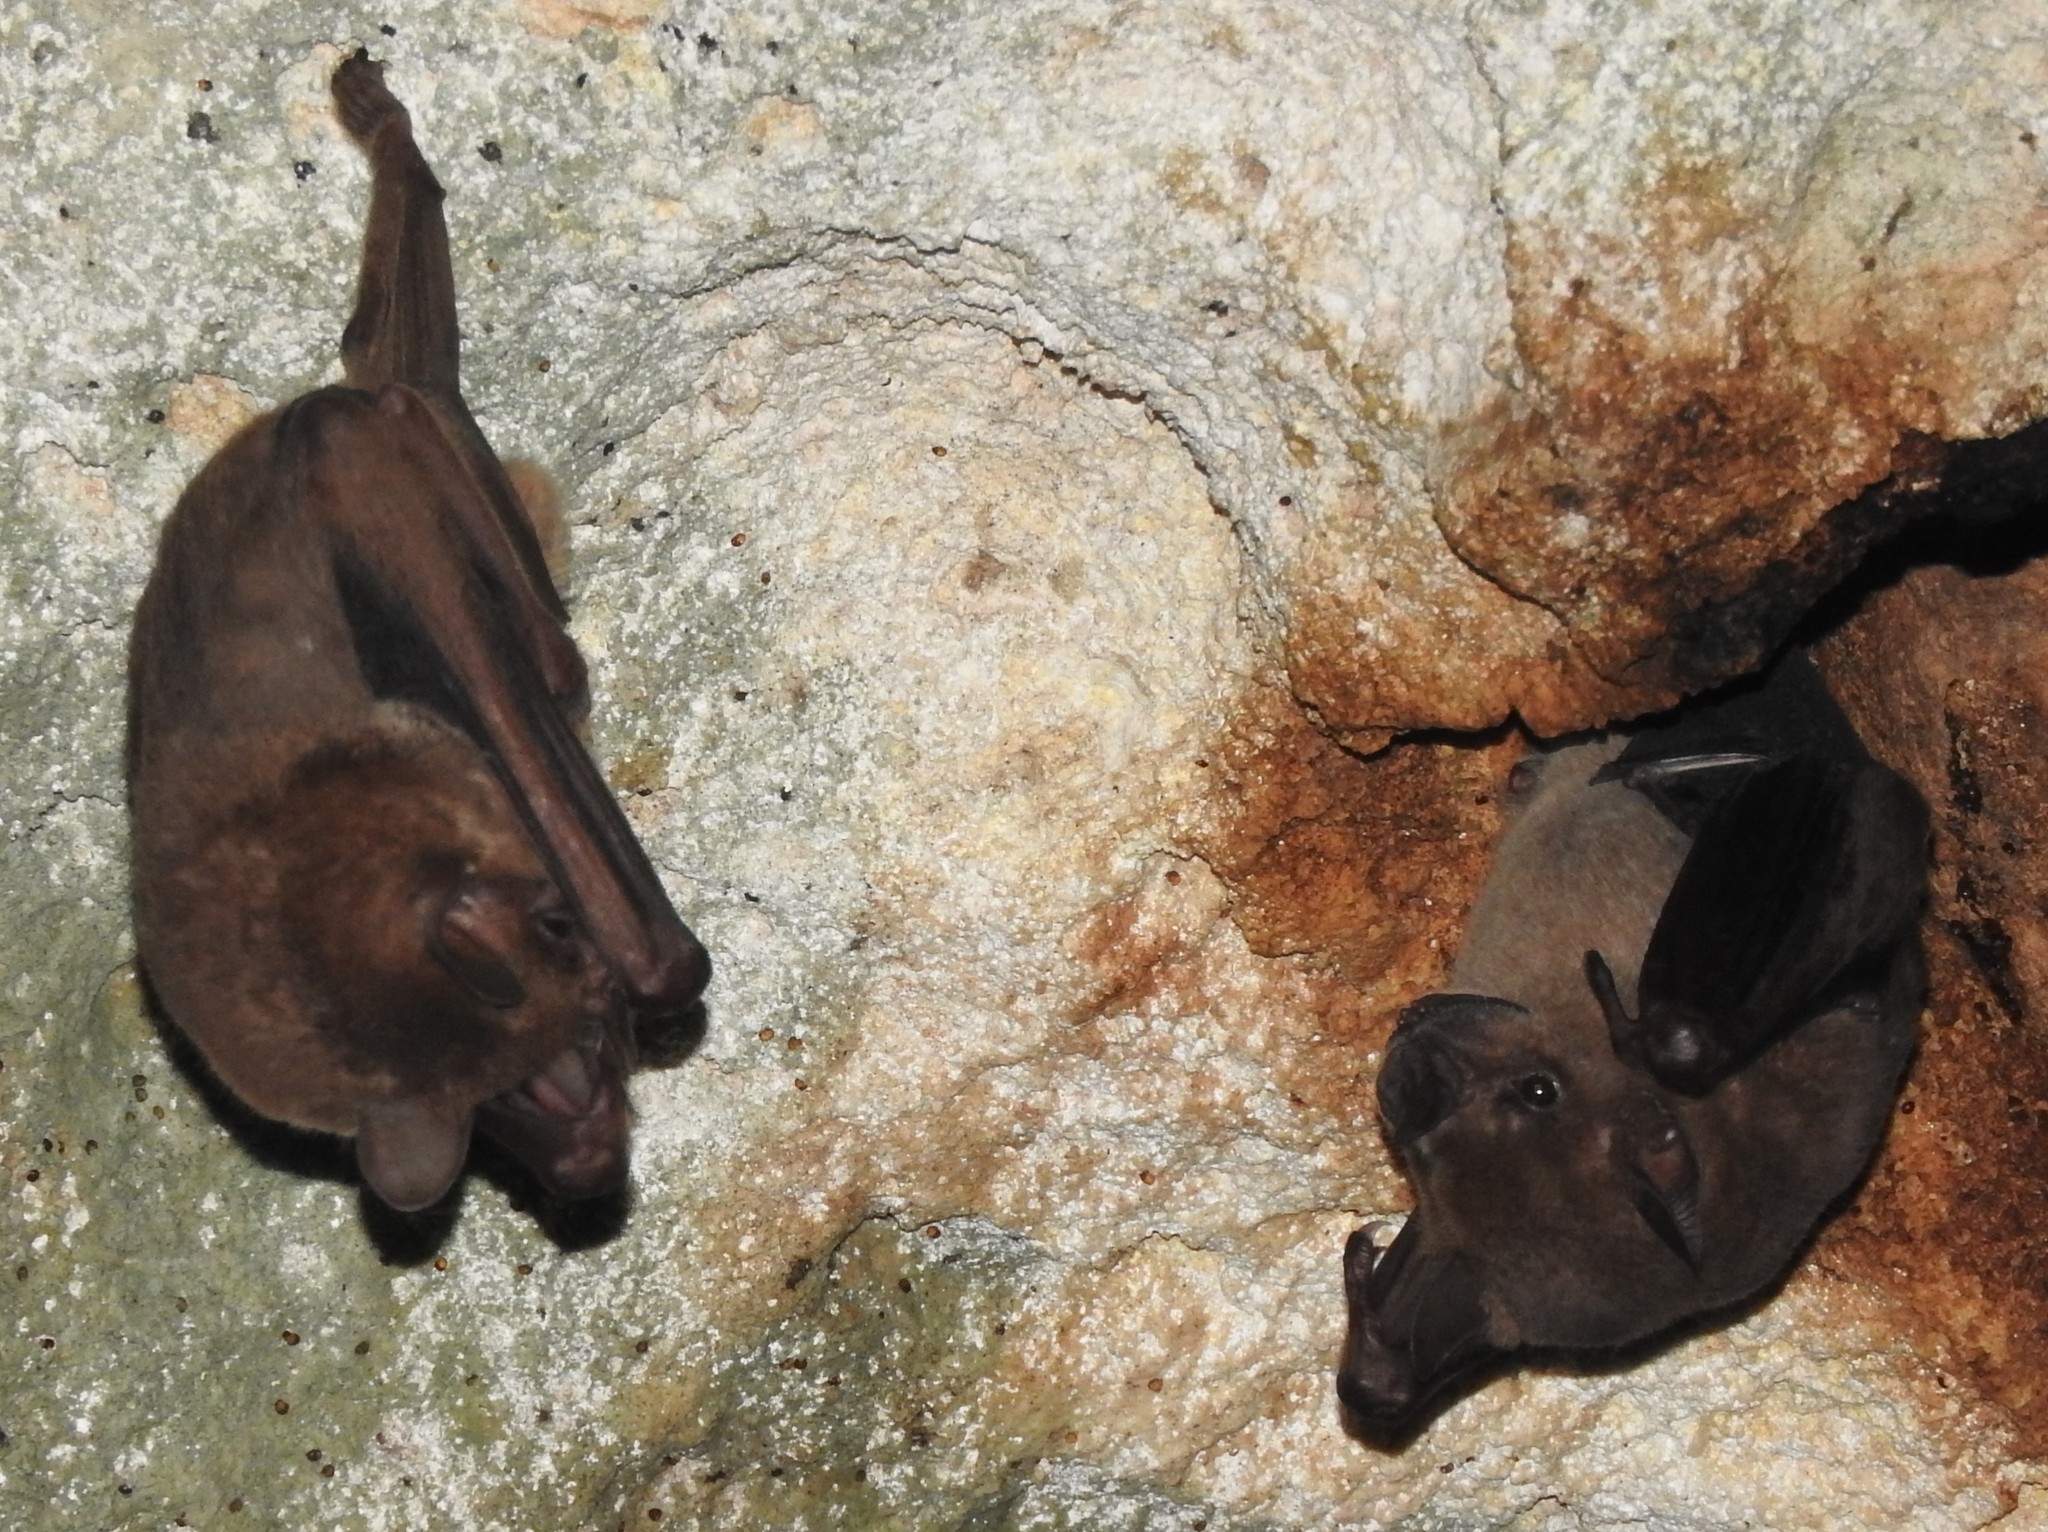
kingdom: Animalia
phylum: Chordata
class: Mammalia
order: Chiroptera
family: Phyllostomidae
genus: Artibeus
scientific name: Artibeus jamaicensis
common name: Jamaican fruit-eating bat
